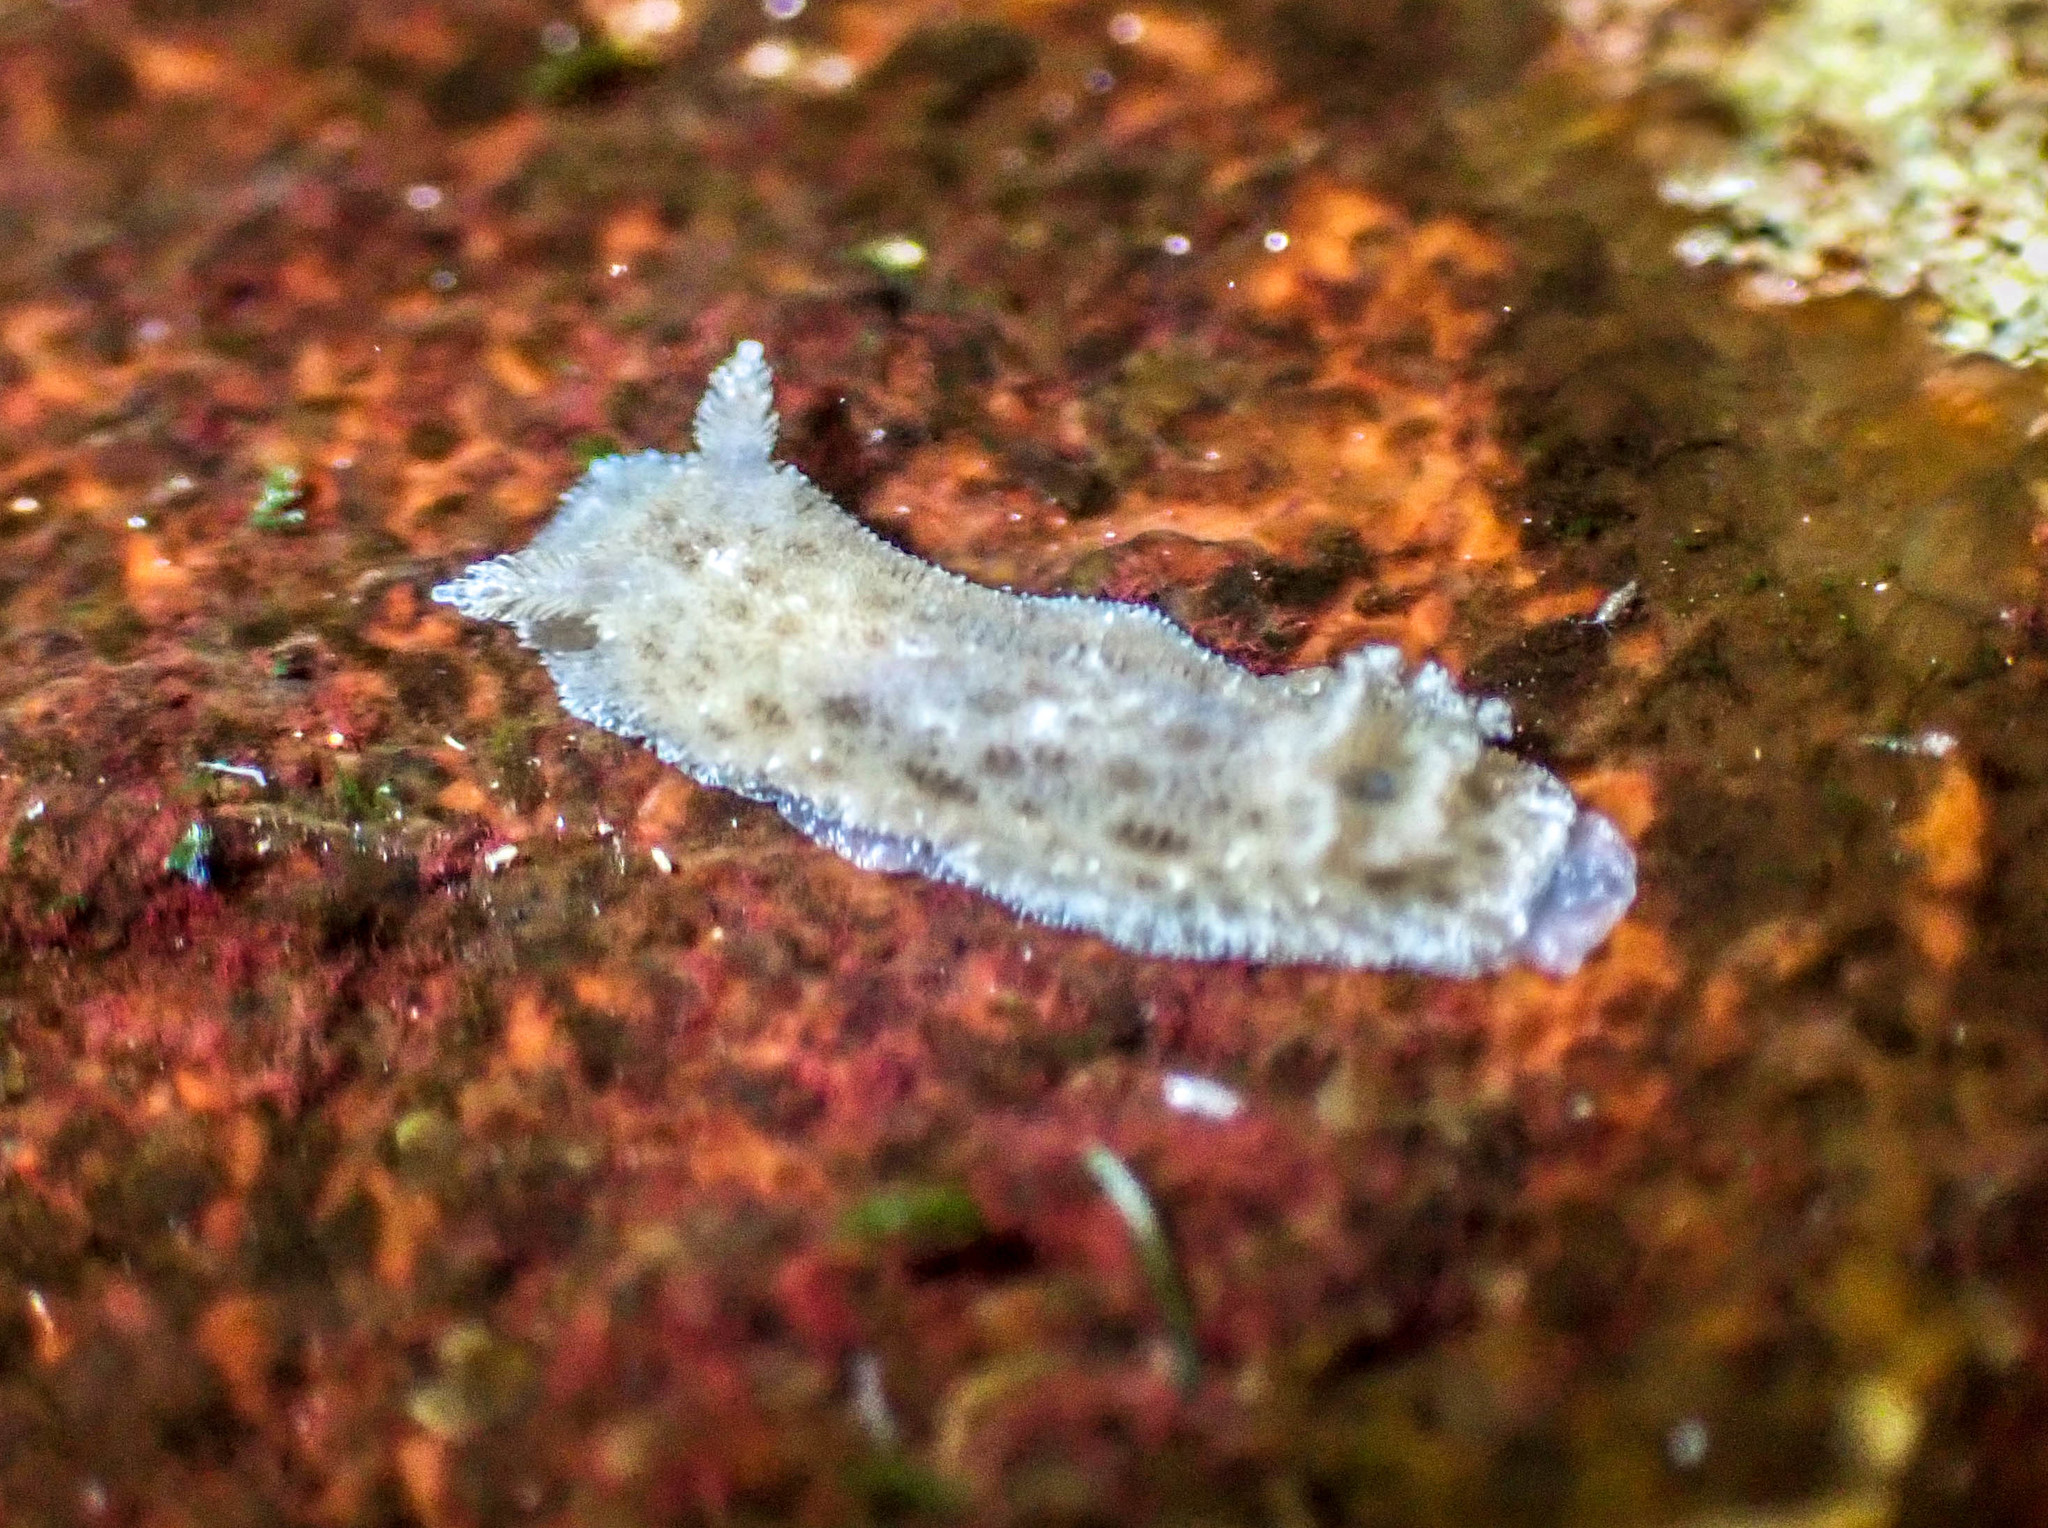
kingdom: Animalia
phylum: Mollusca
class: Gastropoda
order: Nudibranchia
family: Discodorididae
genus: Jorunna
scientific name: Jorunna pantherina
